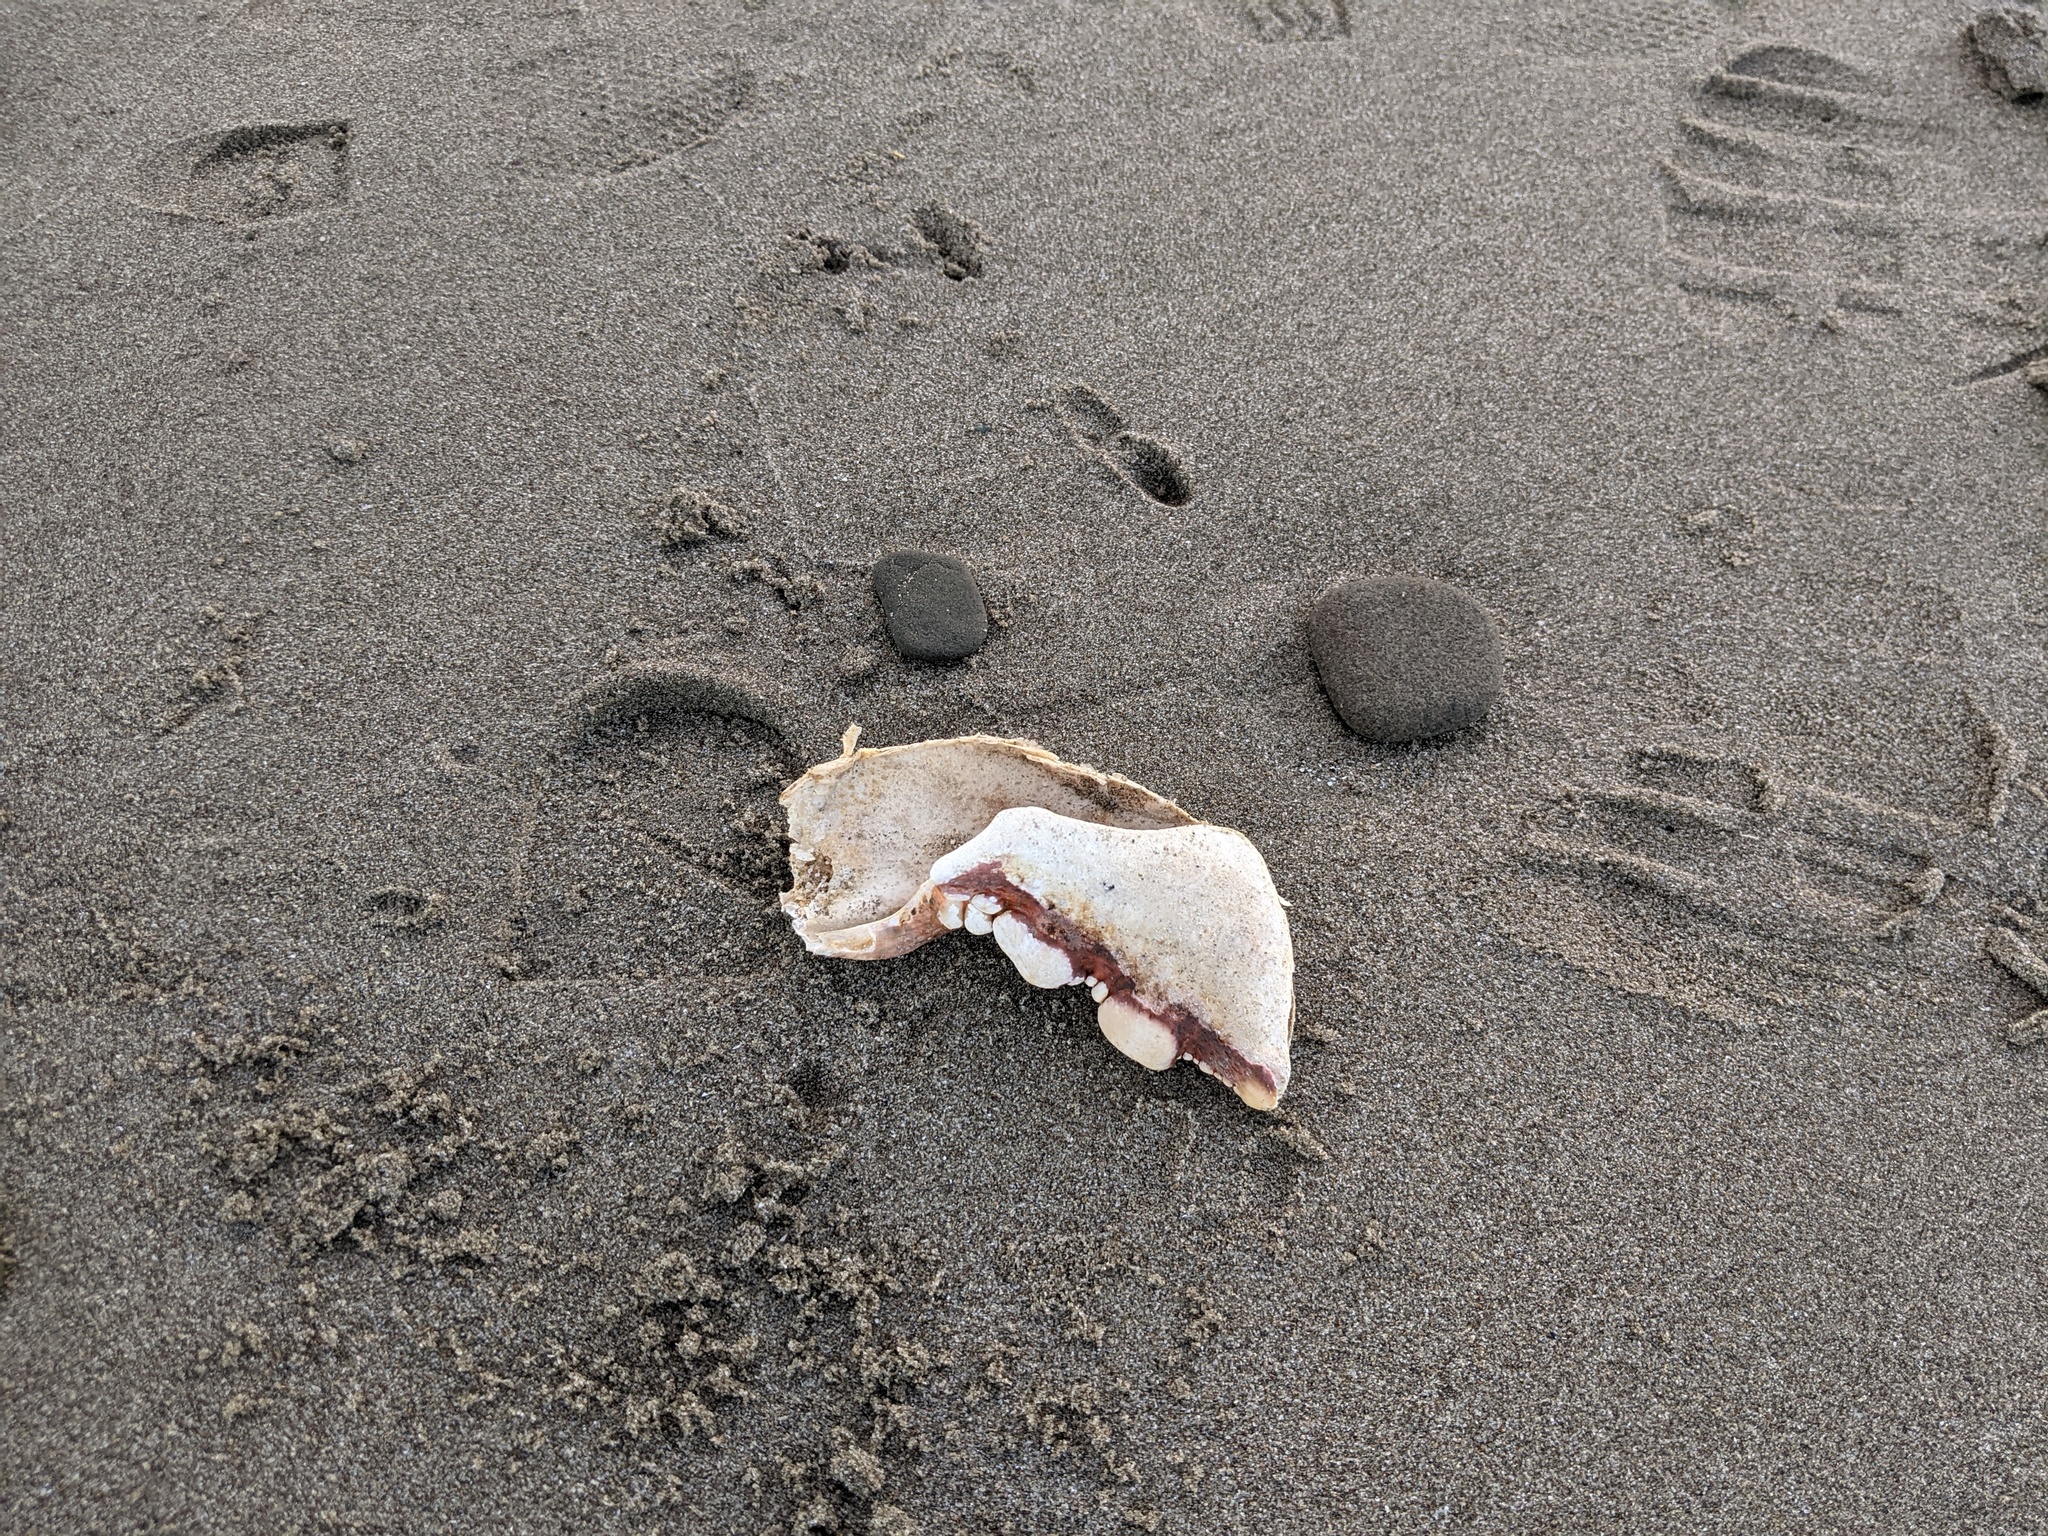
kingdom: Animalia
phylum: Arthropoda
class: Malacostraca
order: Decapoda
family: Nephropidae
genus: Homarus
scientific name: Homarus americanus
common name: American lobster
